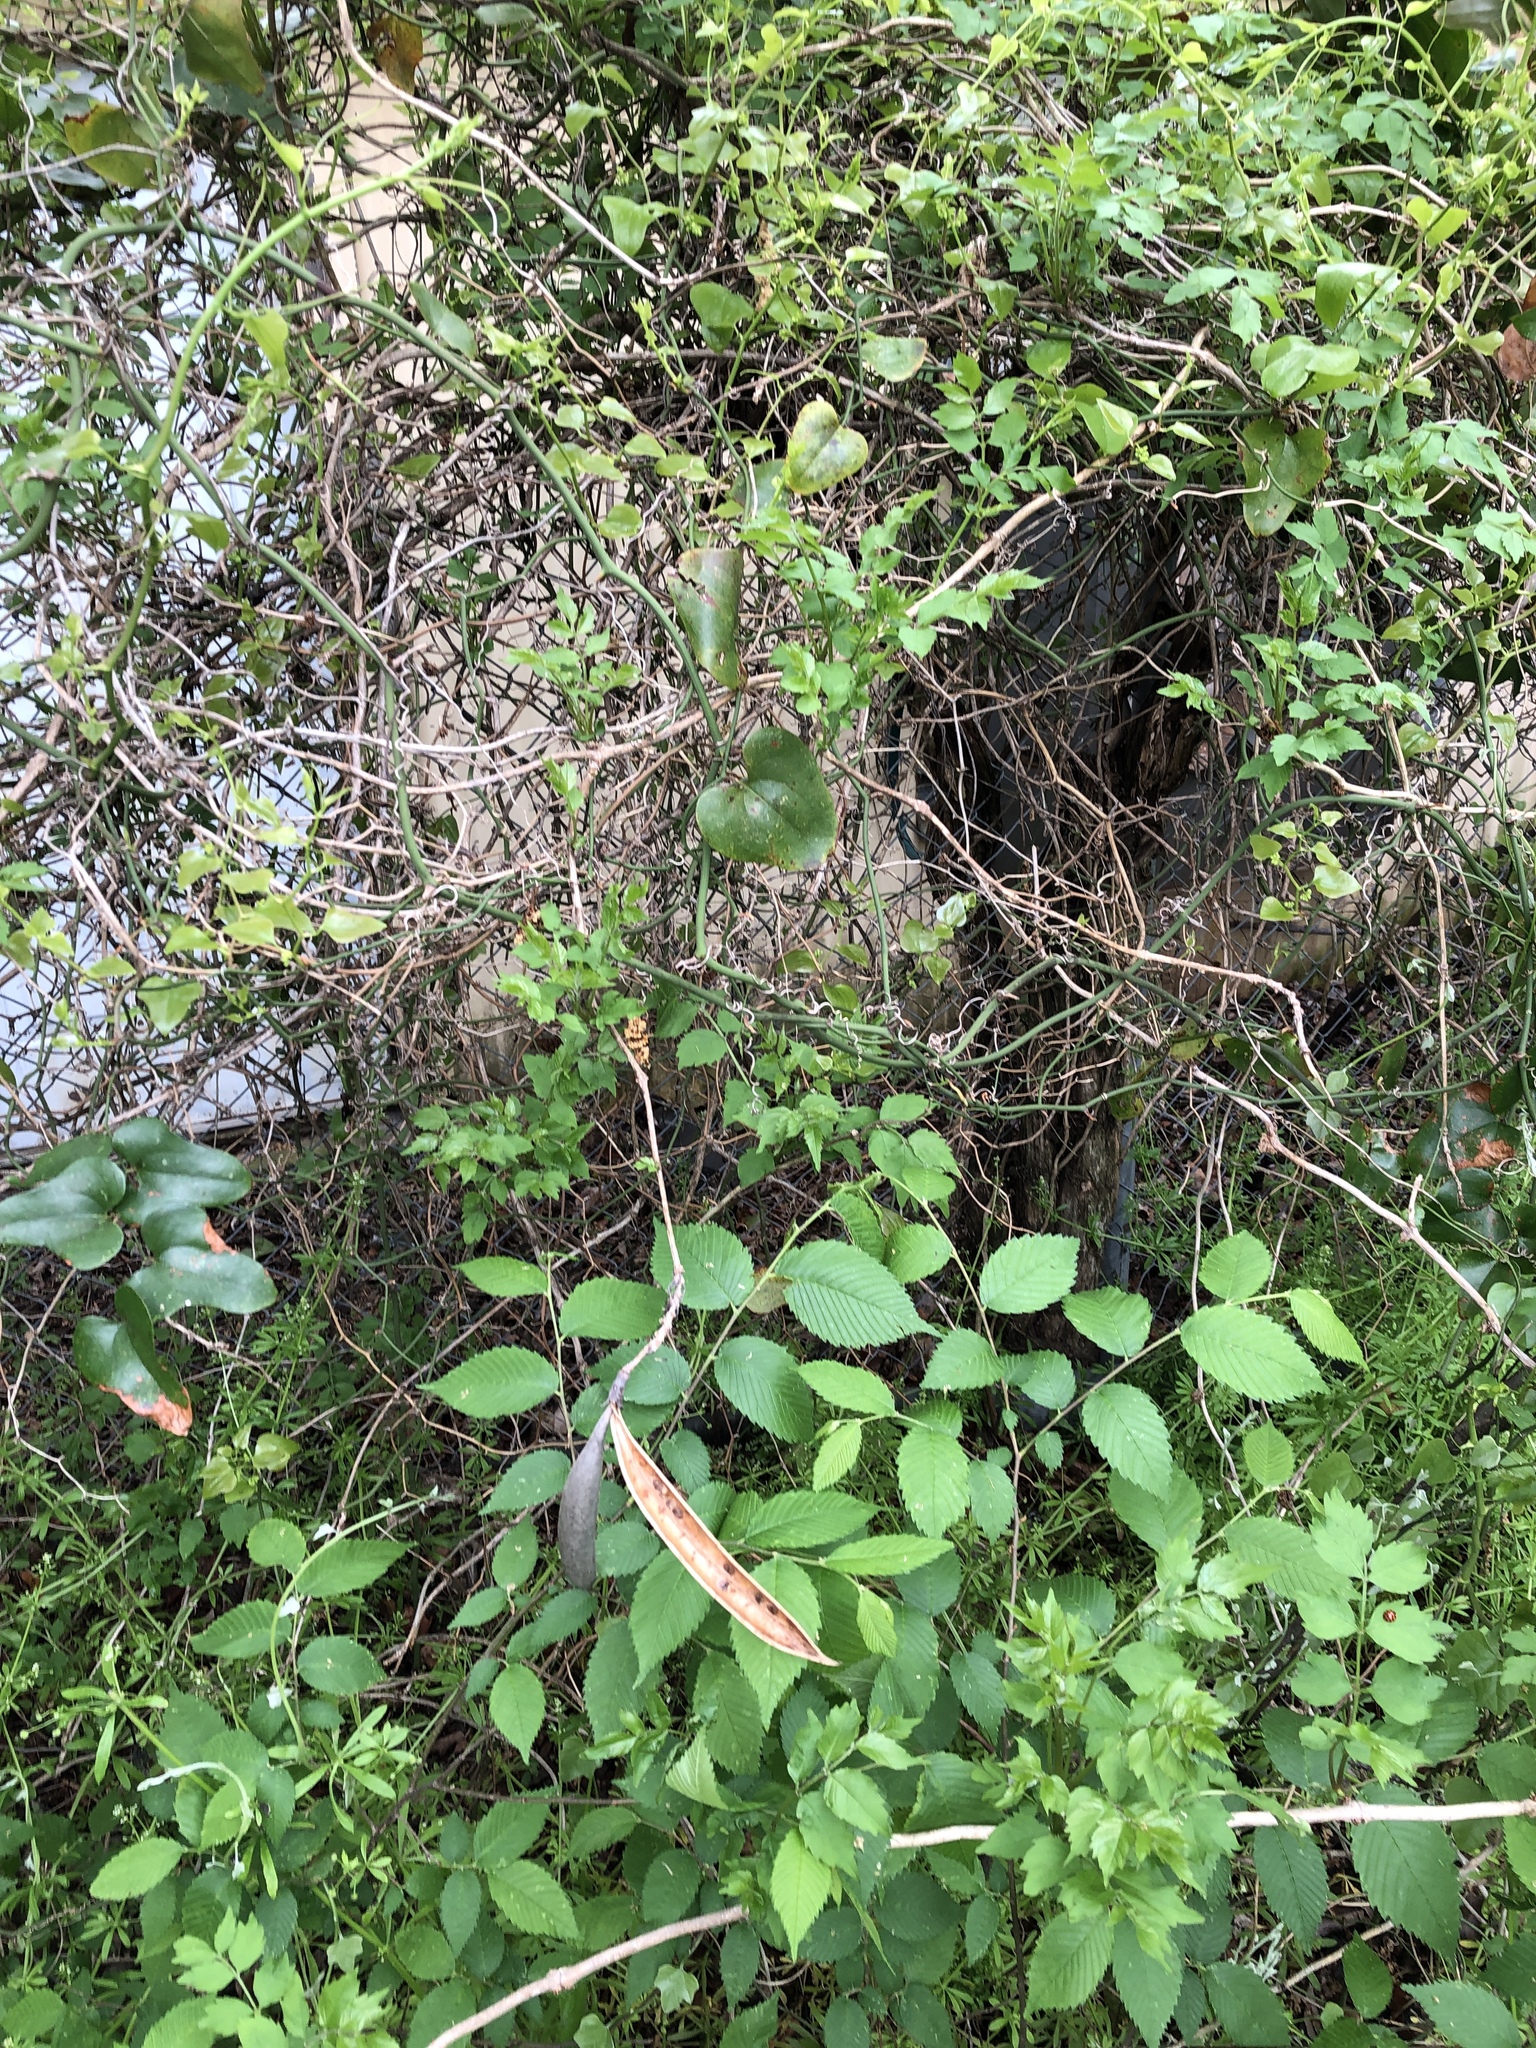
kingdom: Plantae
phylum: Tracheophyta
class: Magnoliopsida
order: Lamiales
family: Bignoniaceae
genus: Campsis
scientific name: Campsis radicans
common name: Trumpet-creeper
